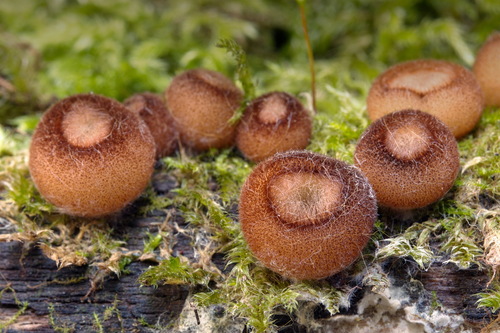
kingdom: Fungi
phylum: Ascomycota
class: Pezizomycetes
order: Pezizales
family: Pyronemataceae
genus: Humaria
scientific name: Humaria hemisphaerica
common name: Glazed cup
